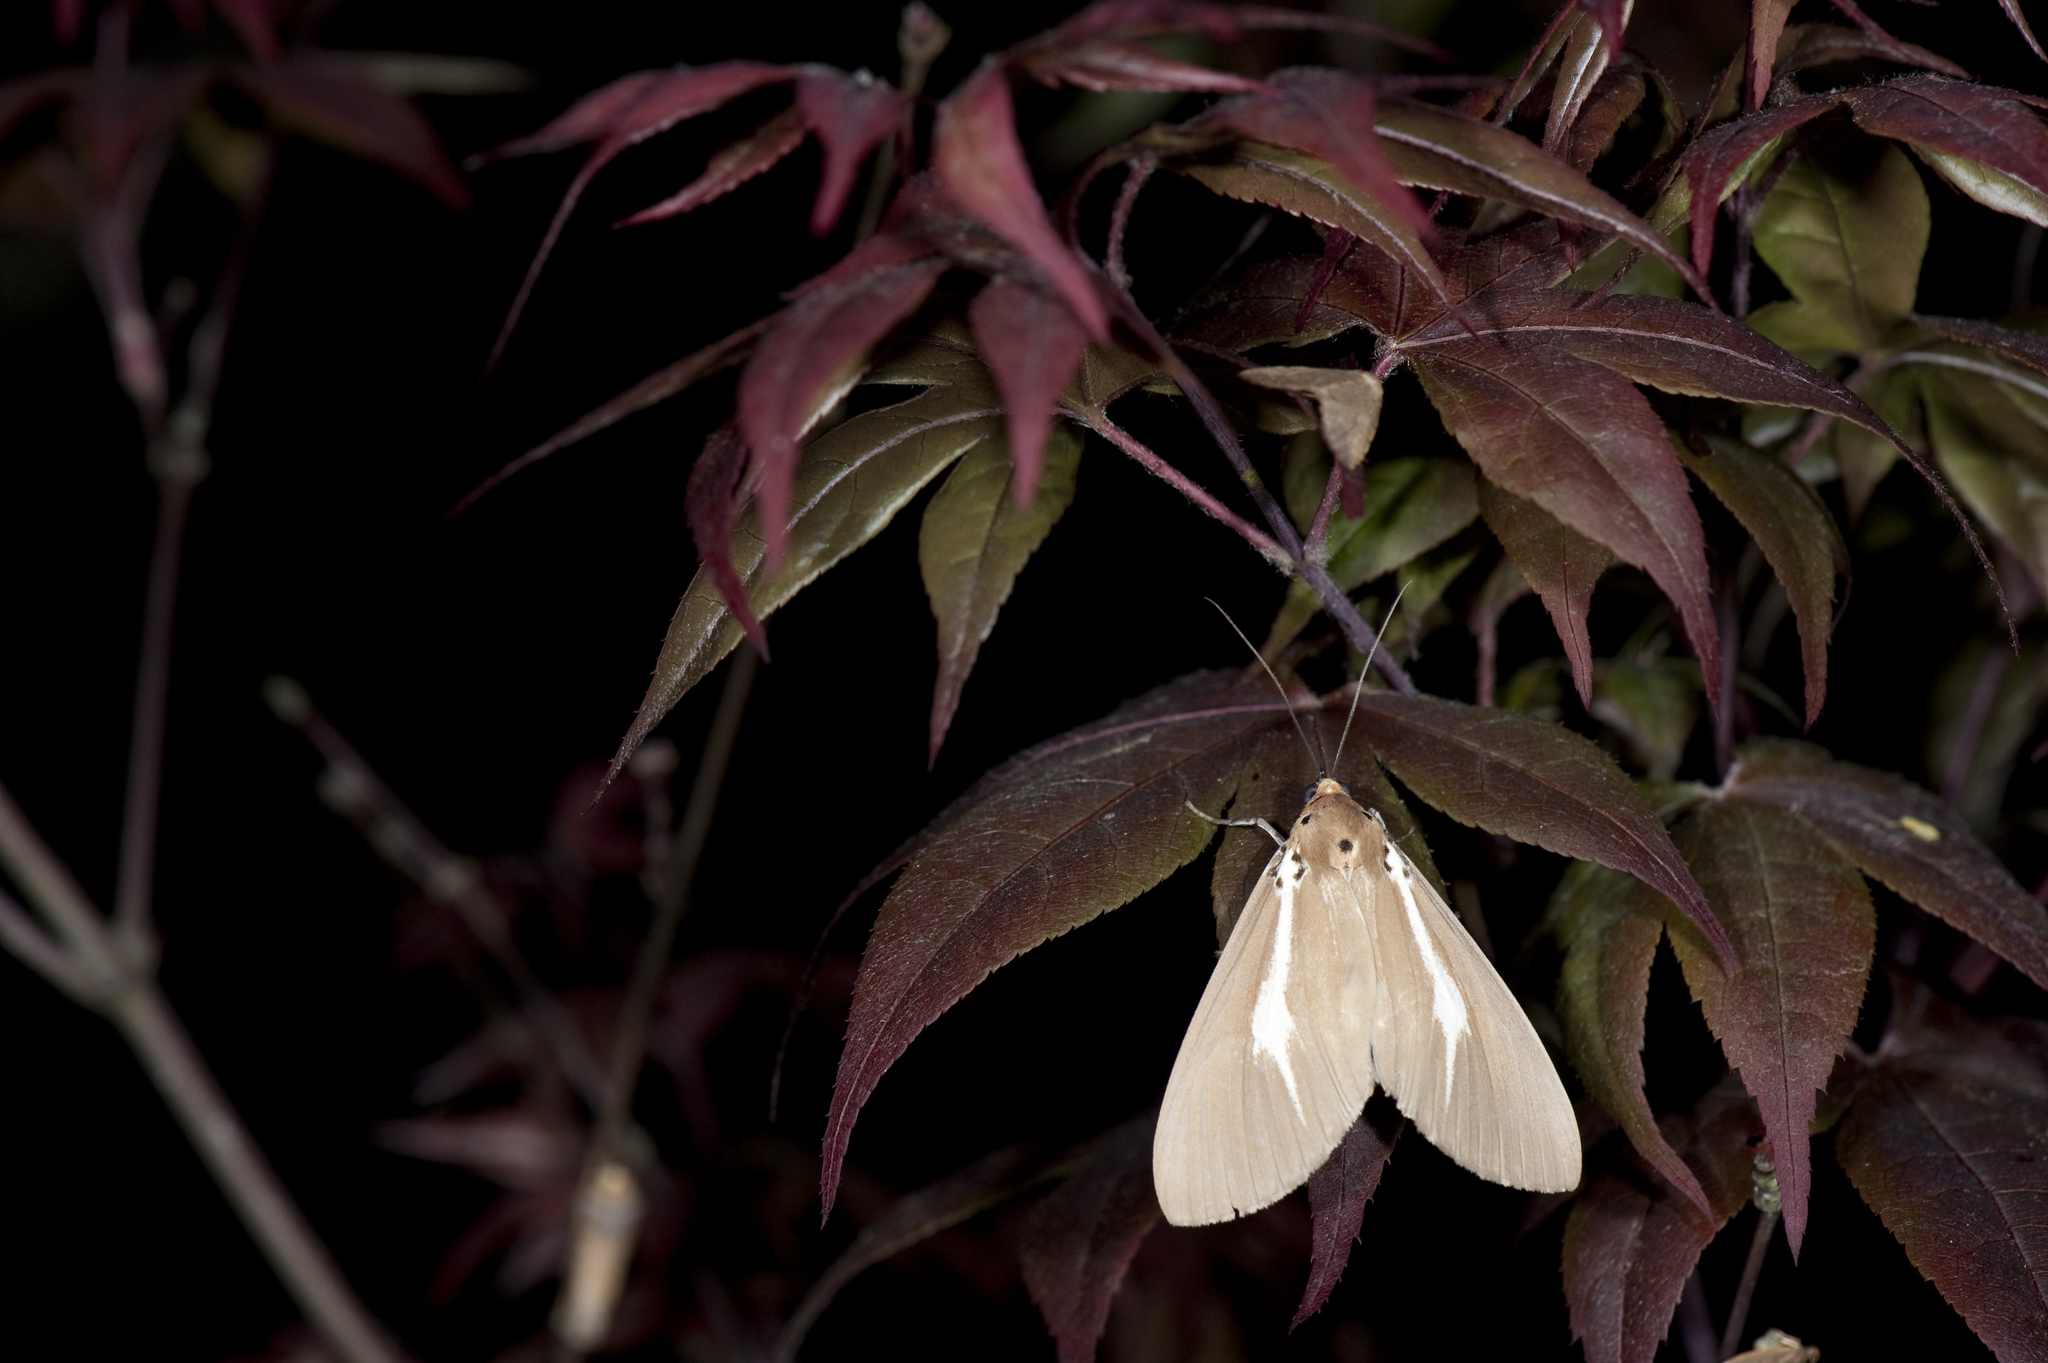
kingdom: Animalia
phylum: Arthropoda
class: Insecta
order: Lepidoptera
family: Erebidae
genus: Asota
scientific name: Asota heliconia
